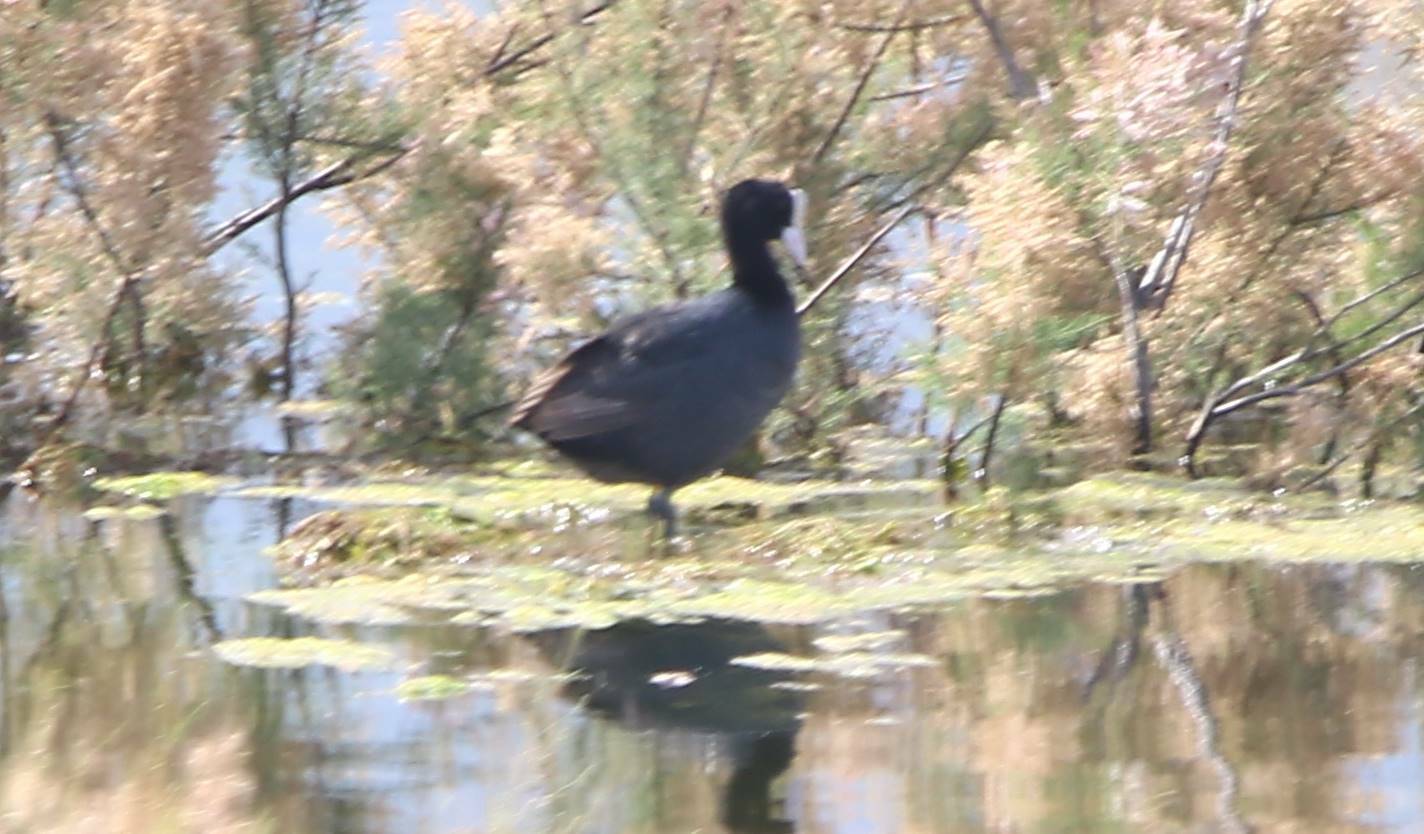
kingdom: Animalia
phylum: Chordata
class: Aves
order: Gruiformes
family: Rallidae
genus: Fulica
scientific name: Fulica atra
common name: Eurasian coot
